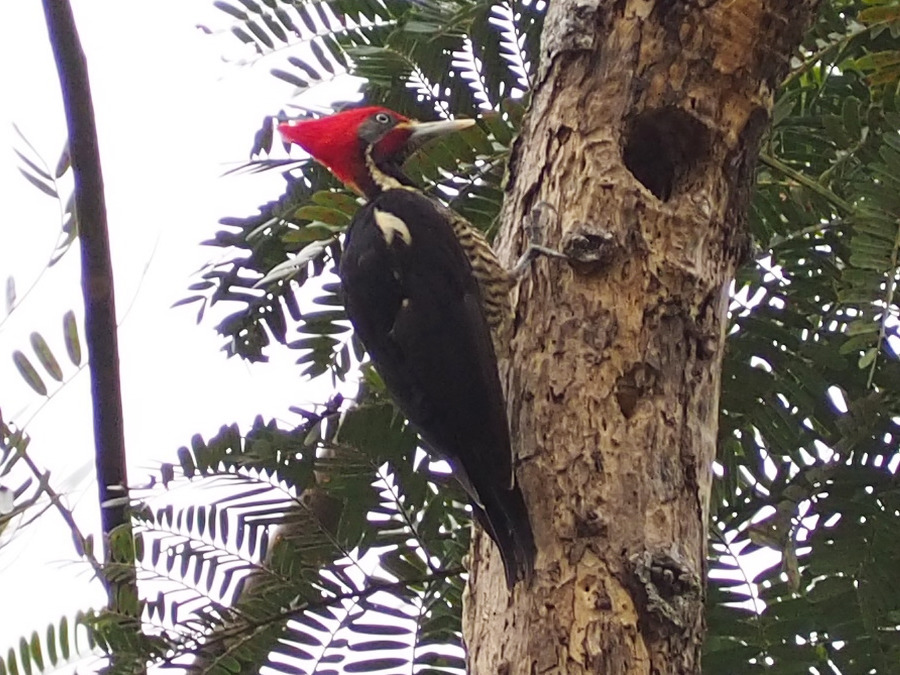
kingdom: Animalia
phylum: Chordata
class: Aves
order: Piciformes
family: Picidae
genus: Dryocopus
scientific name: Dryocopus lineatus
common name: Lineated woodpecker
